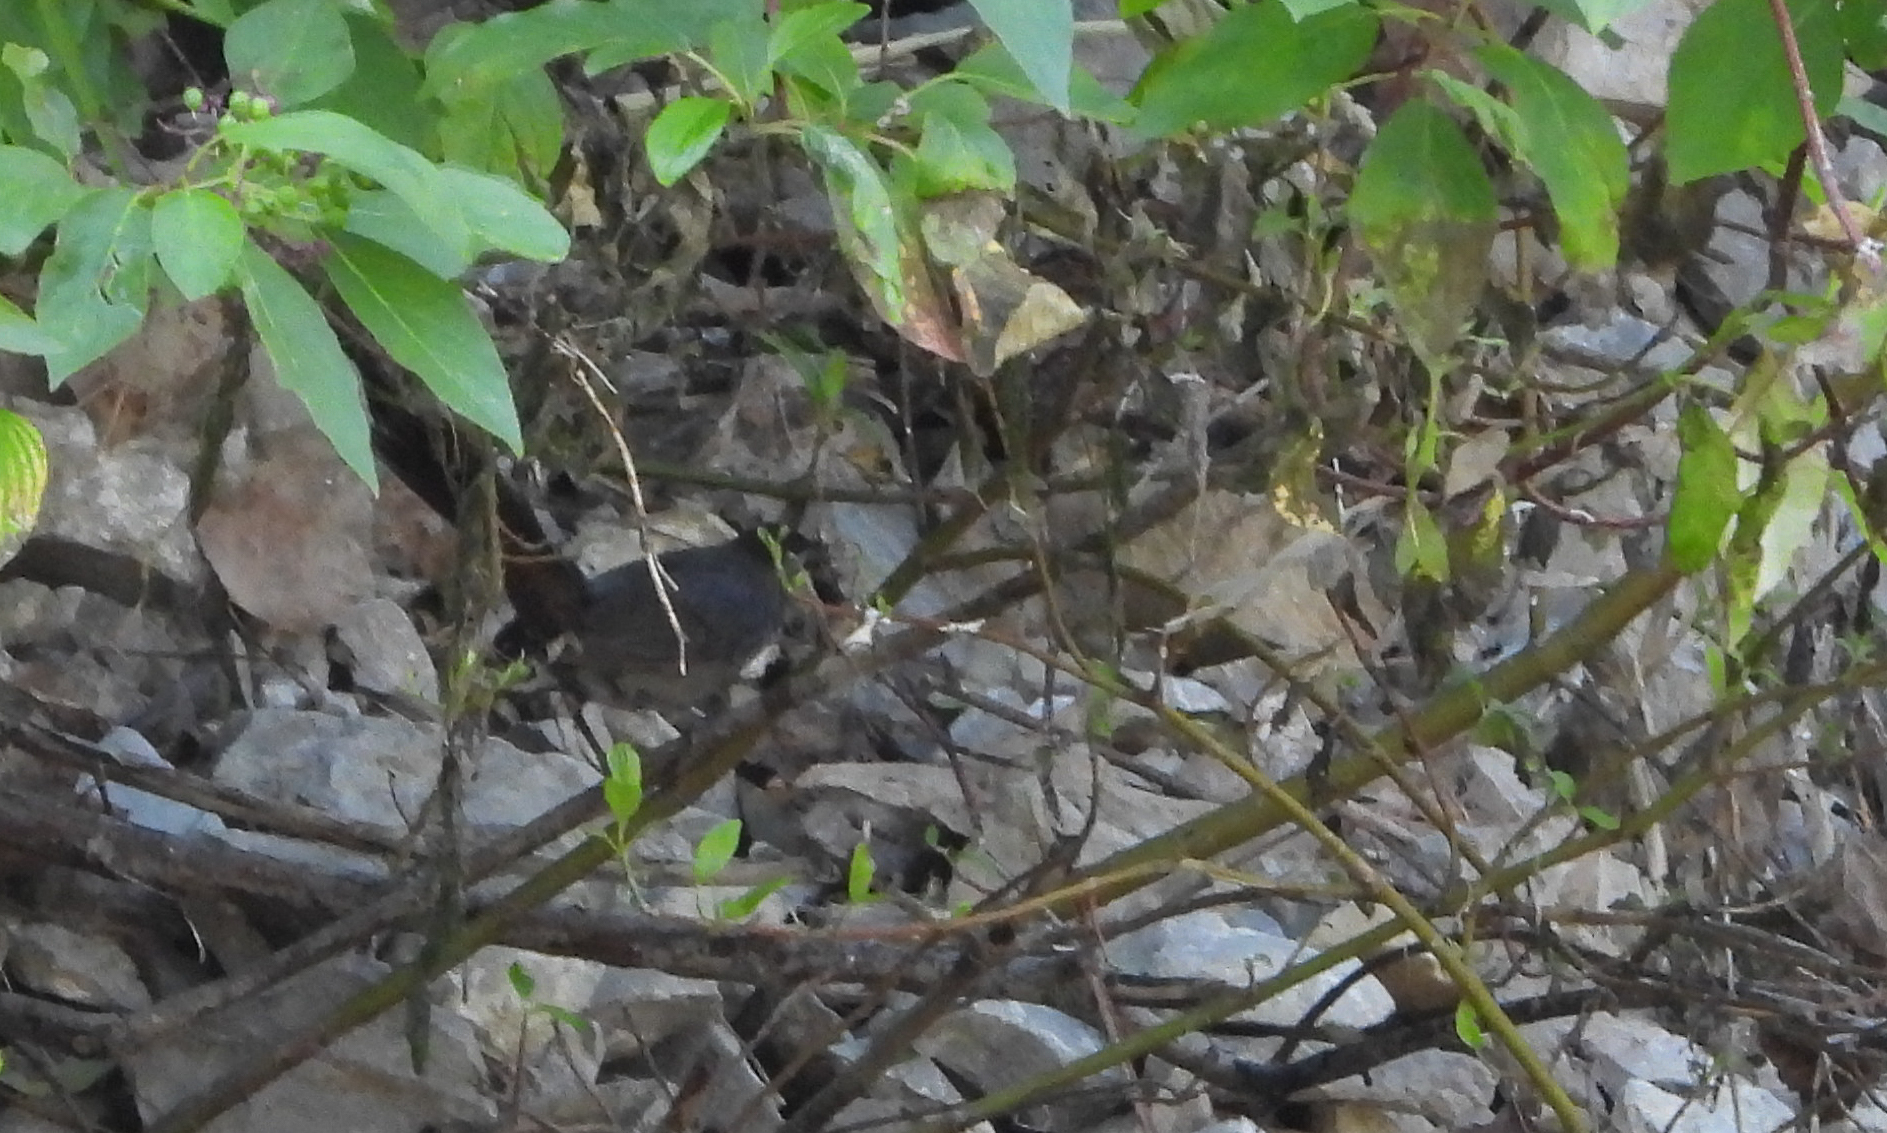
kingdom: Animalia
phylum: Chordata
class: Aves
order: Passeriformes
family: Mimidae
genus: Dumetella
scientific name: Dumetella carolinensis
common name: Gray catbird
